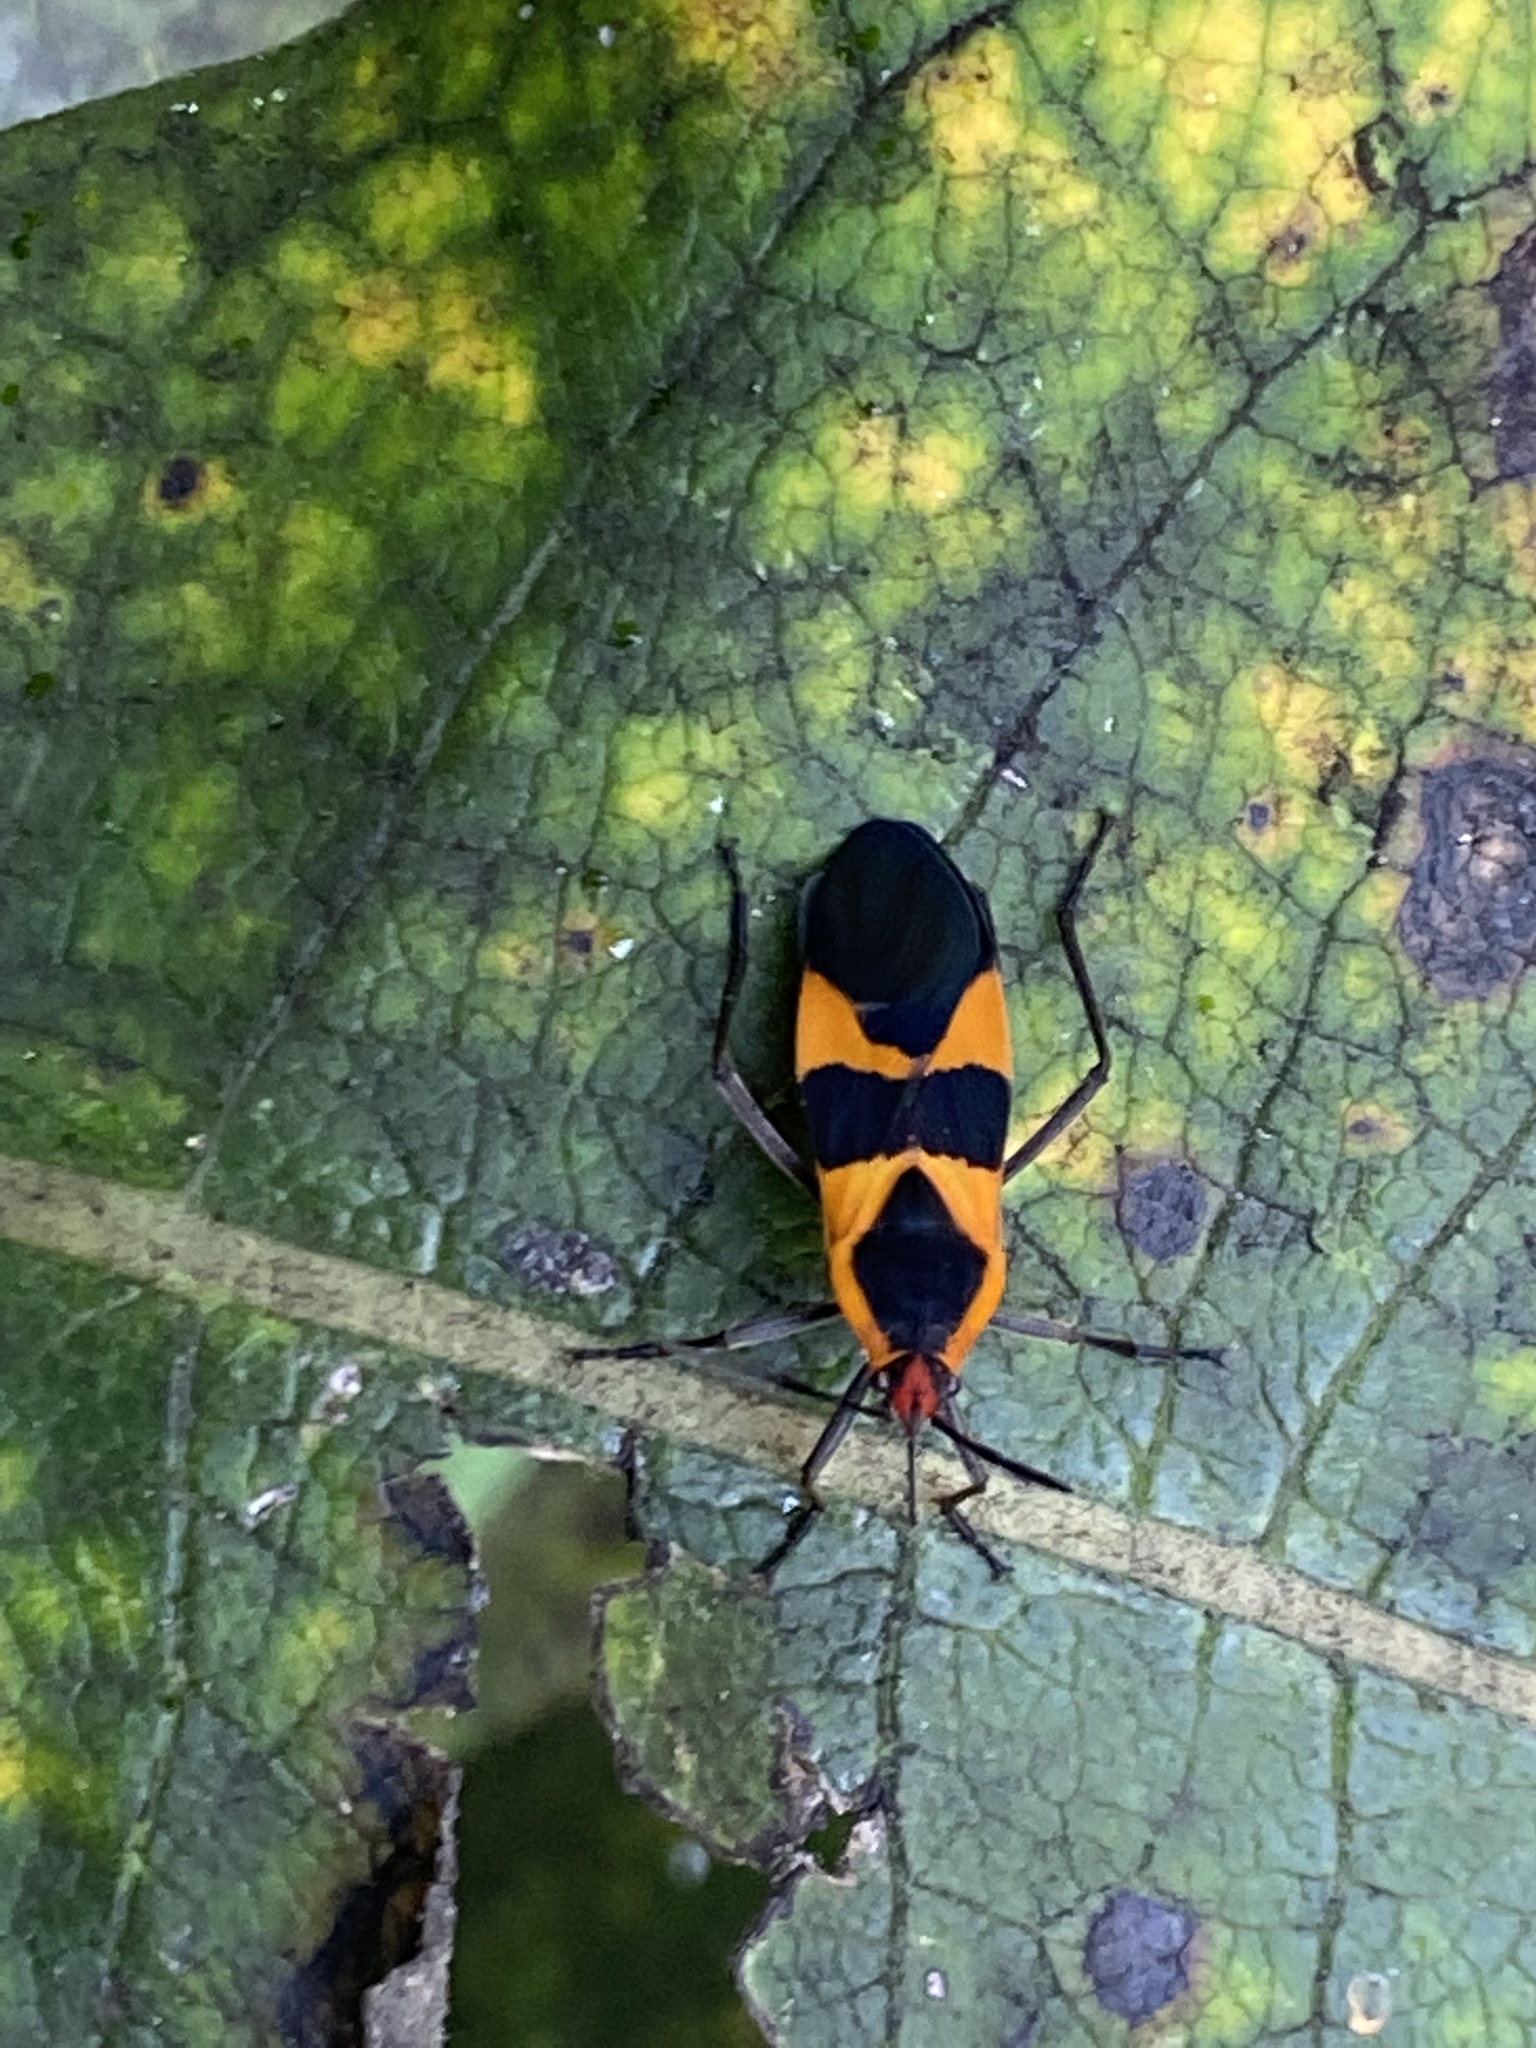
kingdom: Animalia
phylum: Arthropoda
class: Insecta
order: Hemiptera
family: Lygaeidae
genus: Oncopeltus
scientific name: Oncopeltus fasciatus
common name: Large milkweed bug
